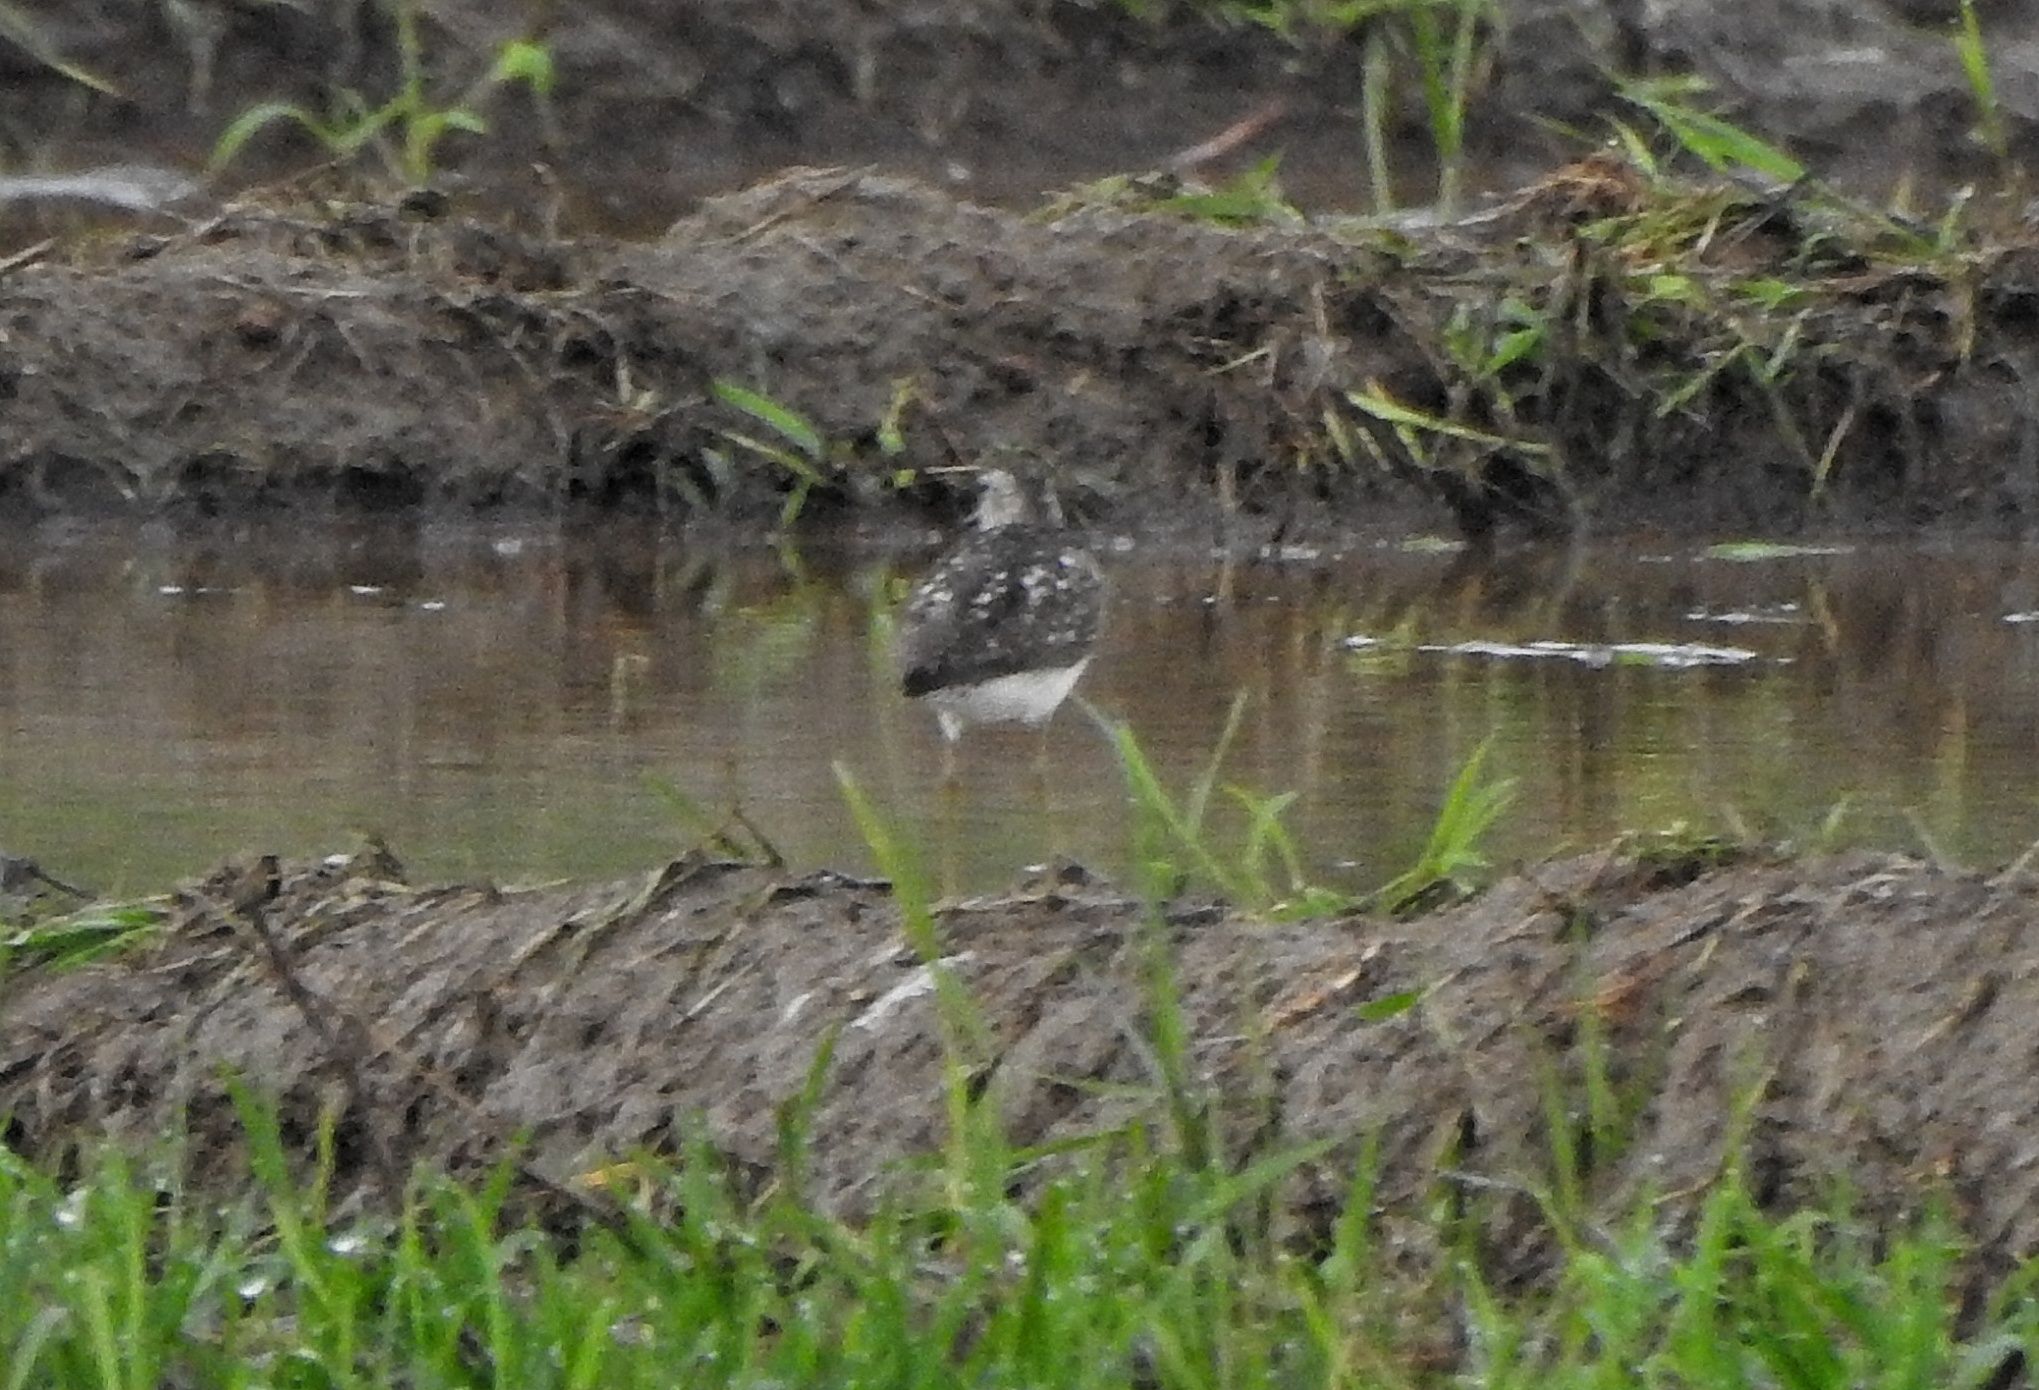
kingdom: Animalia
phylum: Chordata
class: Aves
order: Charadriiformes
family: Scolopacidae
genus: Tringa
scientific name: Tringa glareola
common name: Wood sandpiper
